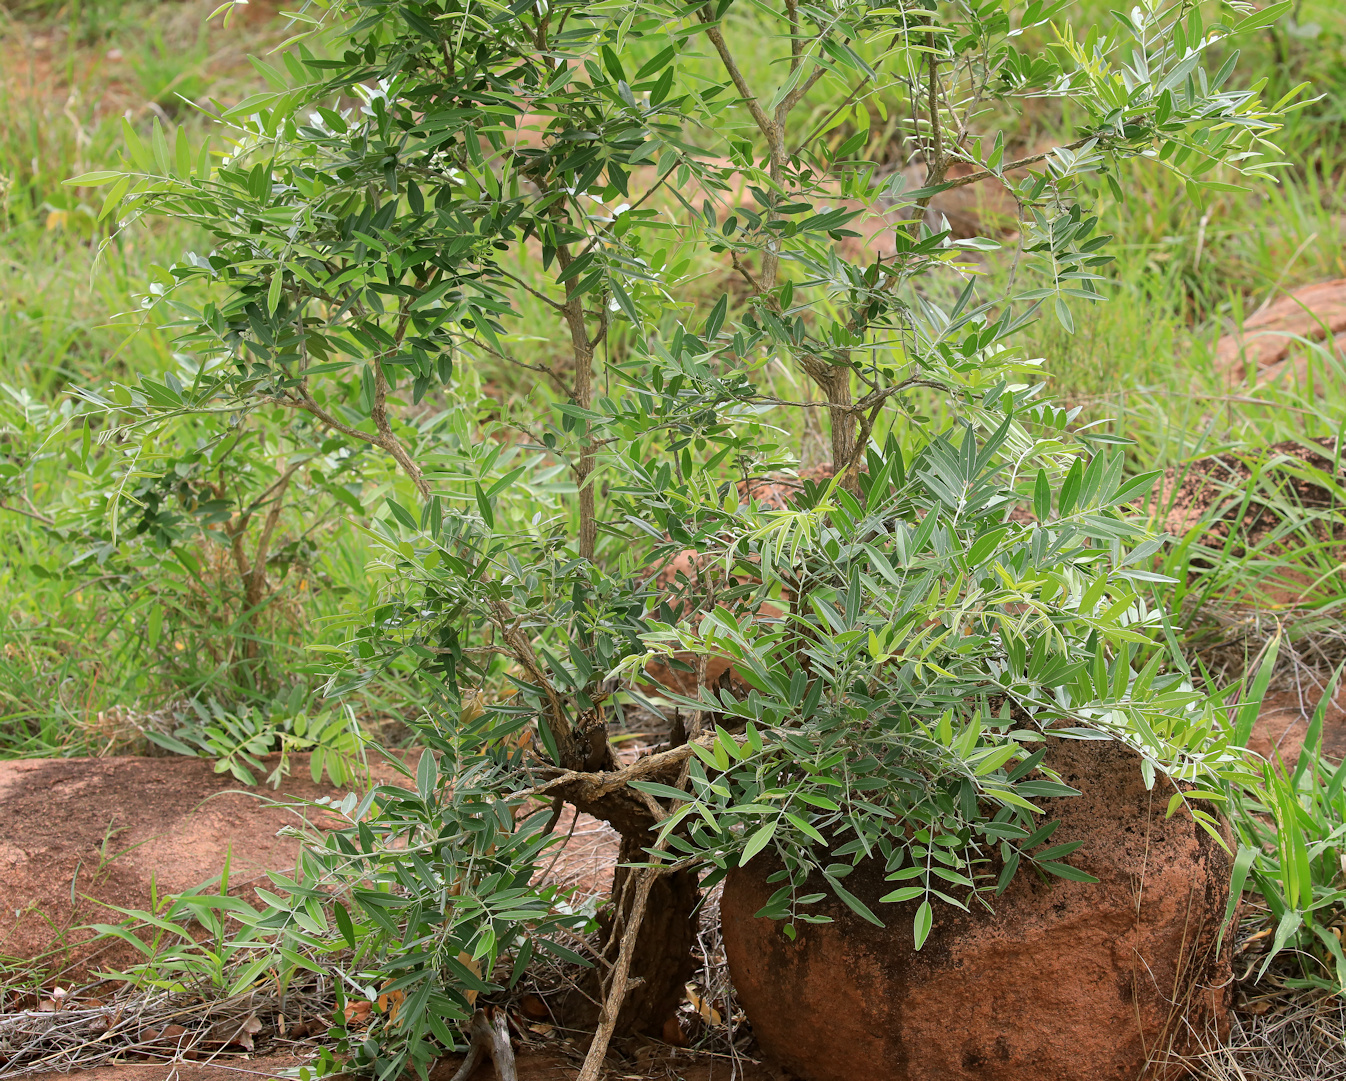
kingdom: Plantae
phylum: Tracheophyta
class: Magnoliopsida
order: Fabales
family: Fabaceae
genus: Mundulea
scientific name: Mundulea sericea
